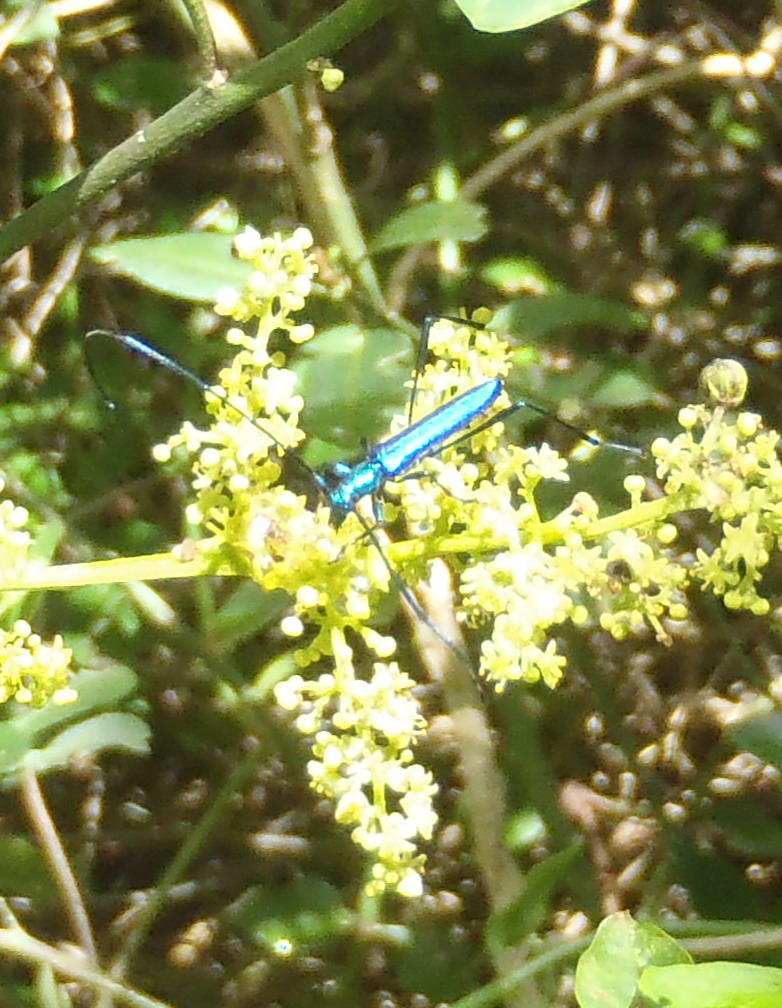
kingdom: Animalia
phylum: Arthropoda
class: Insecta
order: Coleoptera
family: Cerambycidae
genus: Promeces
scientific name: Promeces longipes
